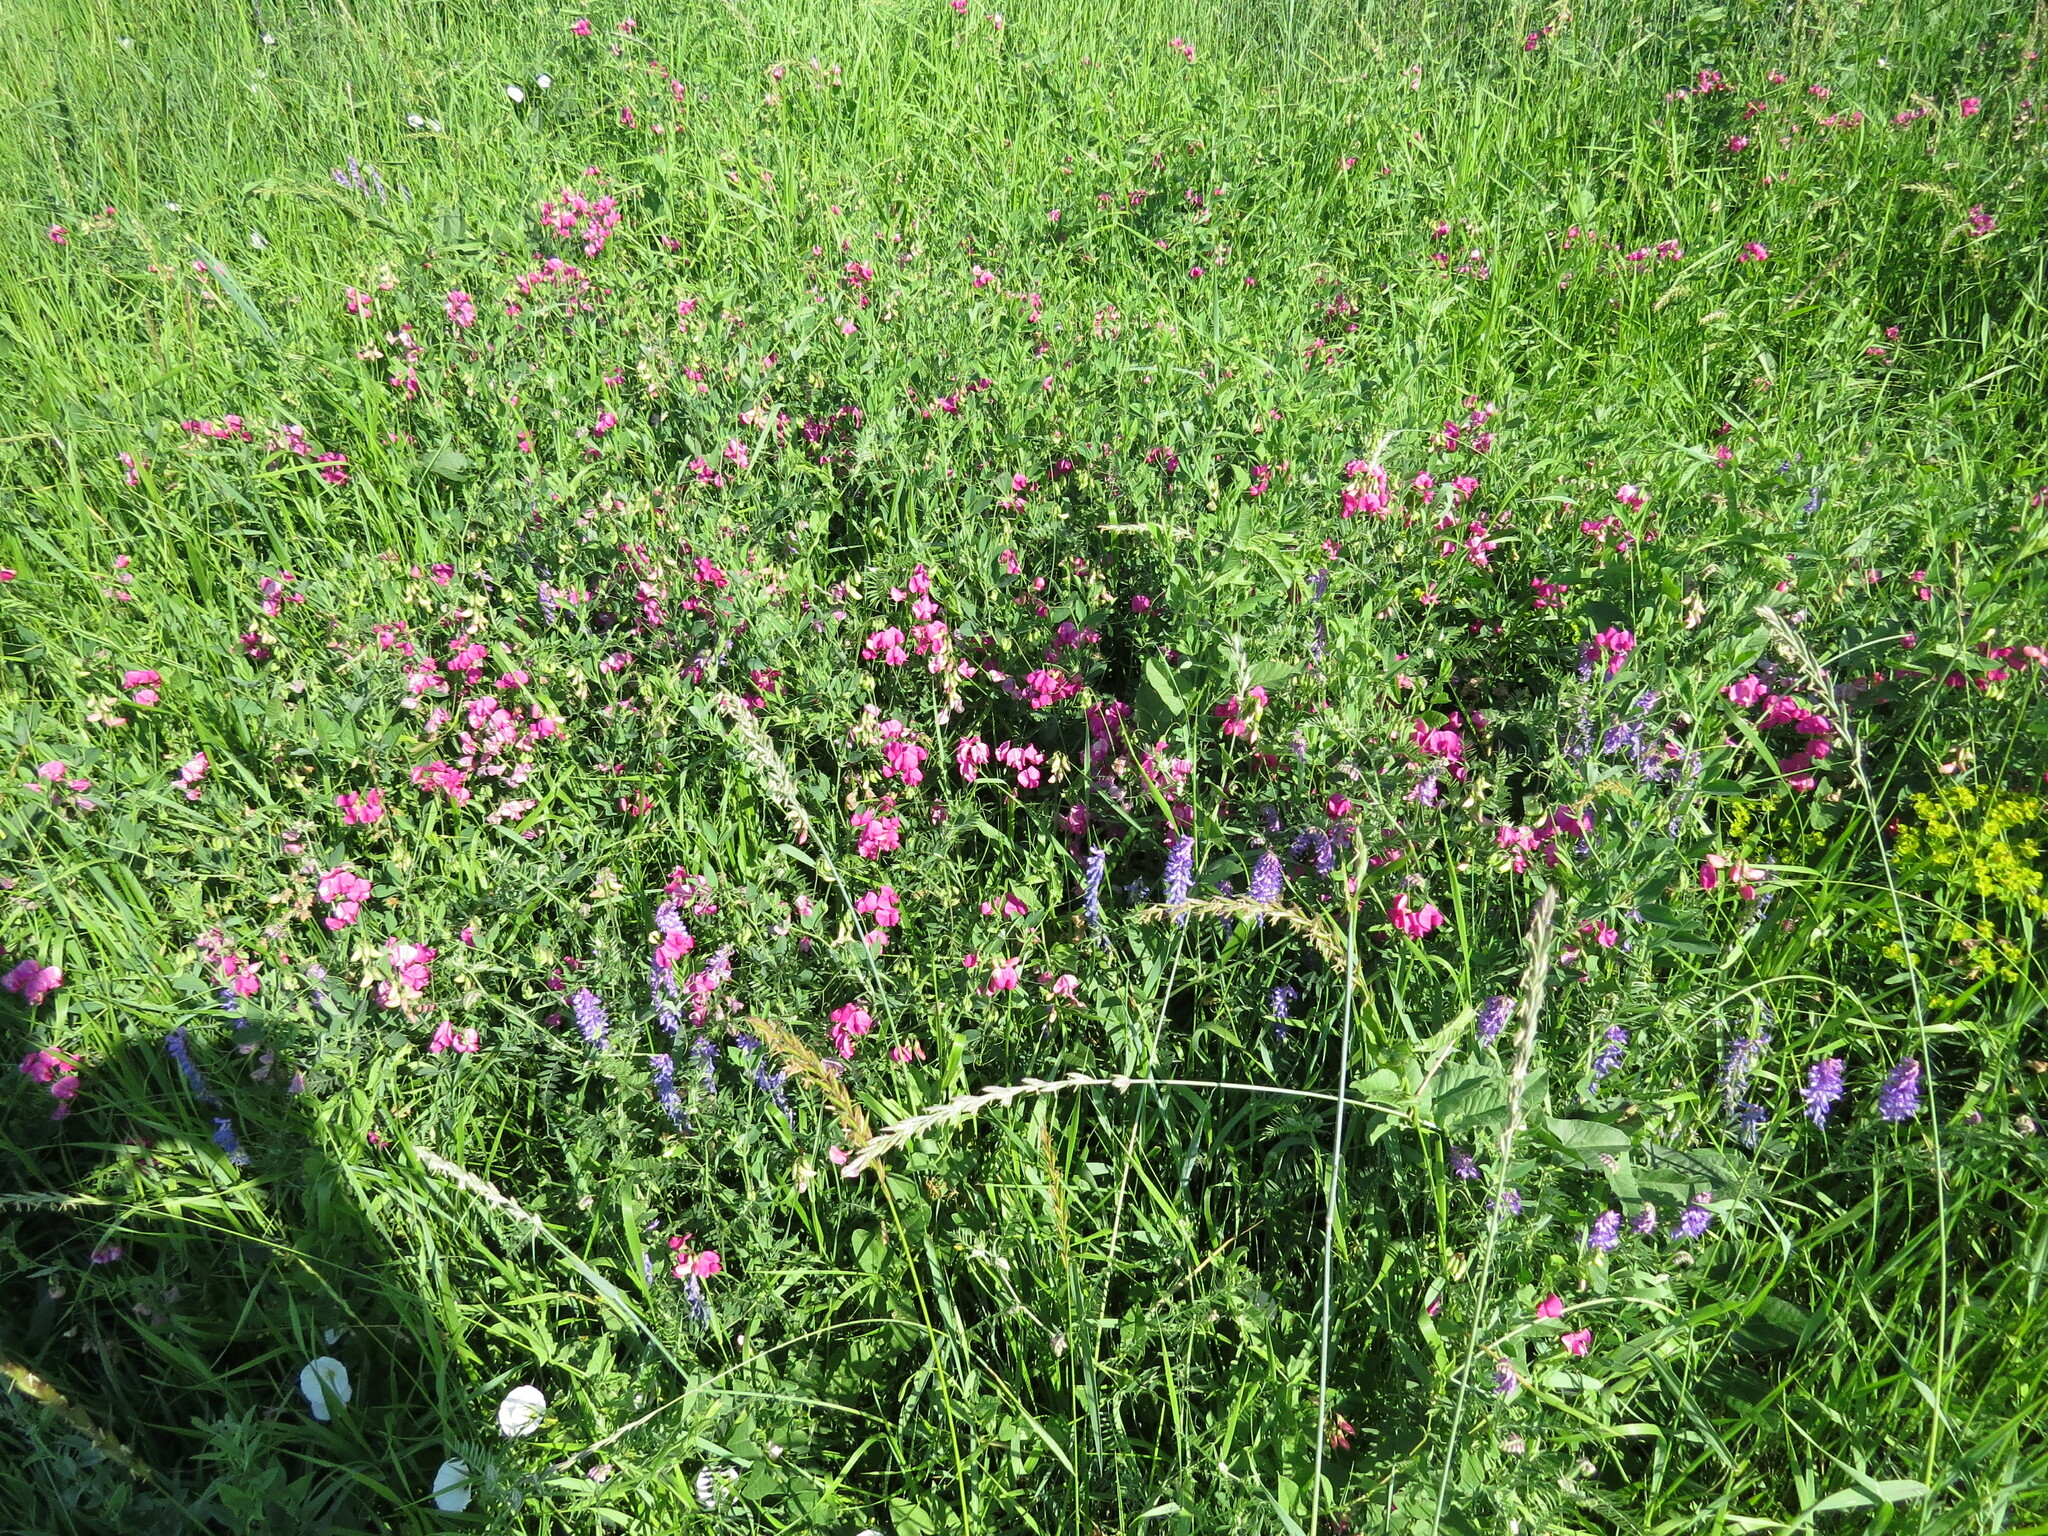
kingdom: Plantae
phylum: Tracheophyta
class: Magnoliopsida
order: Fabales
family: Fabaceae
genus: Lathyrus
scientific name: Lathyrus tuberosus
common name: Tuberous pea
